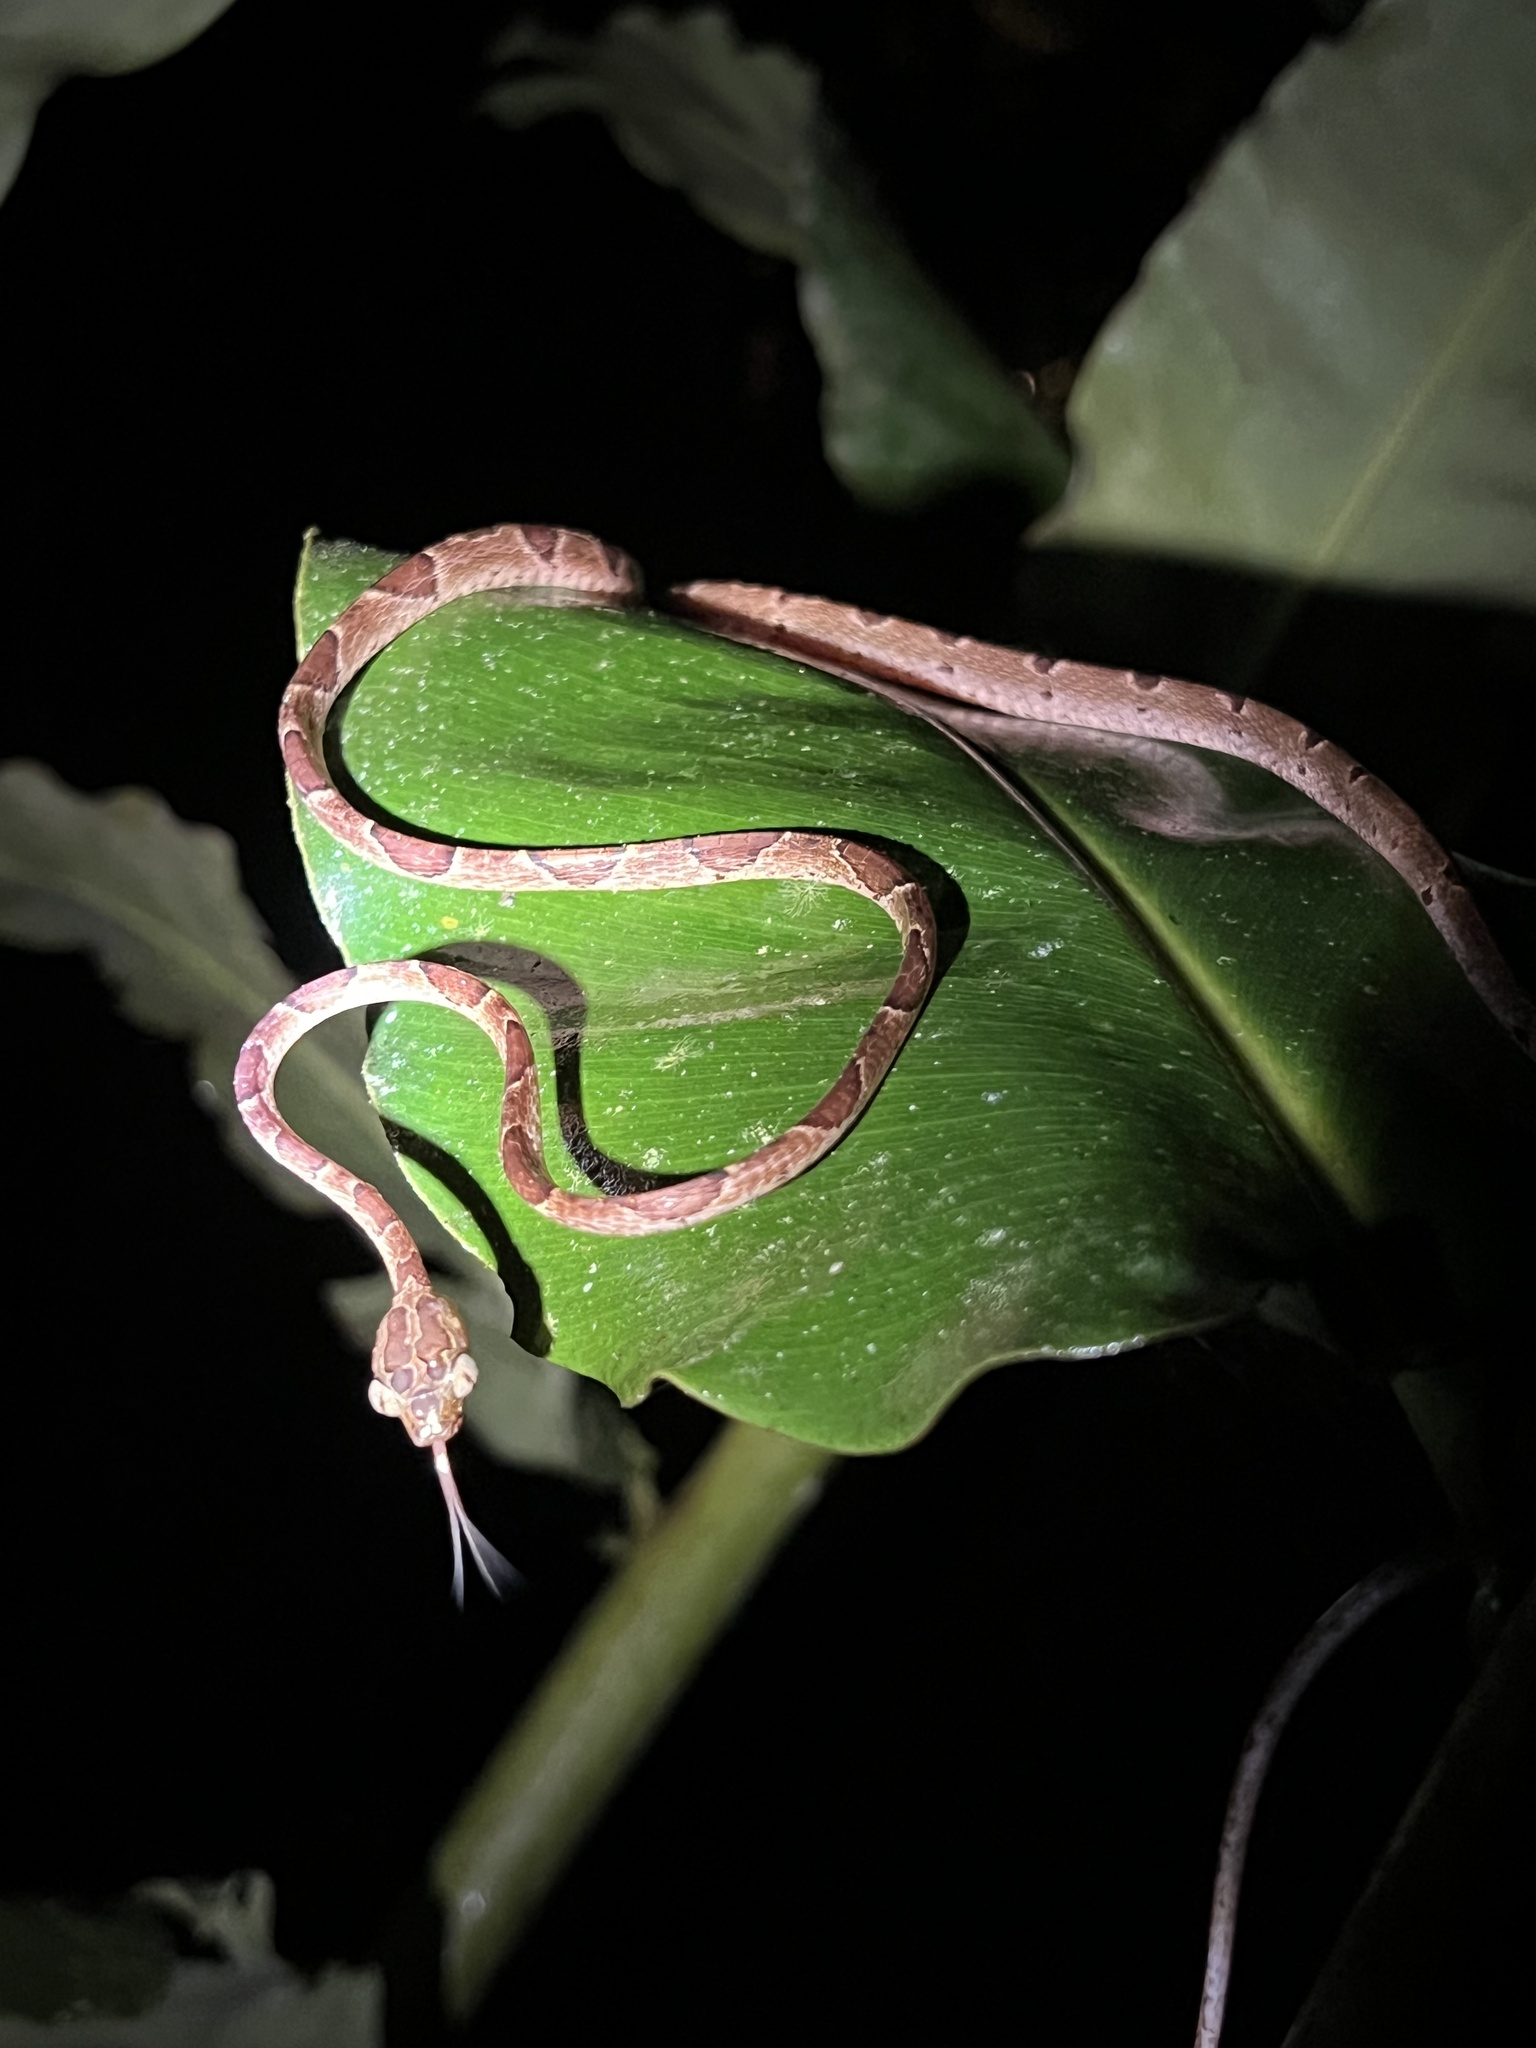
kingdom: Animalia
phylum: Chordata
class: Squamata
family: Colubridae
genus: Imantodes
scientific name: Imantodes cenchoa
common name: Blunthead tree snake
